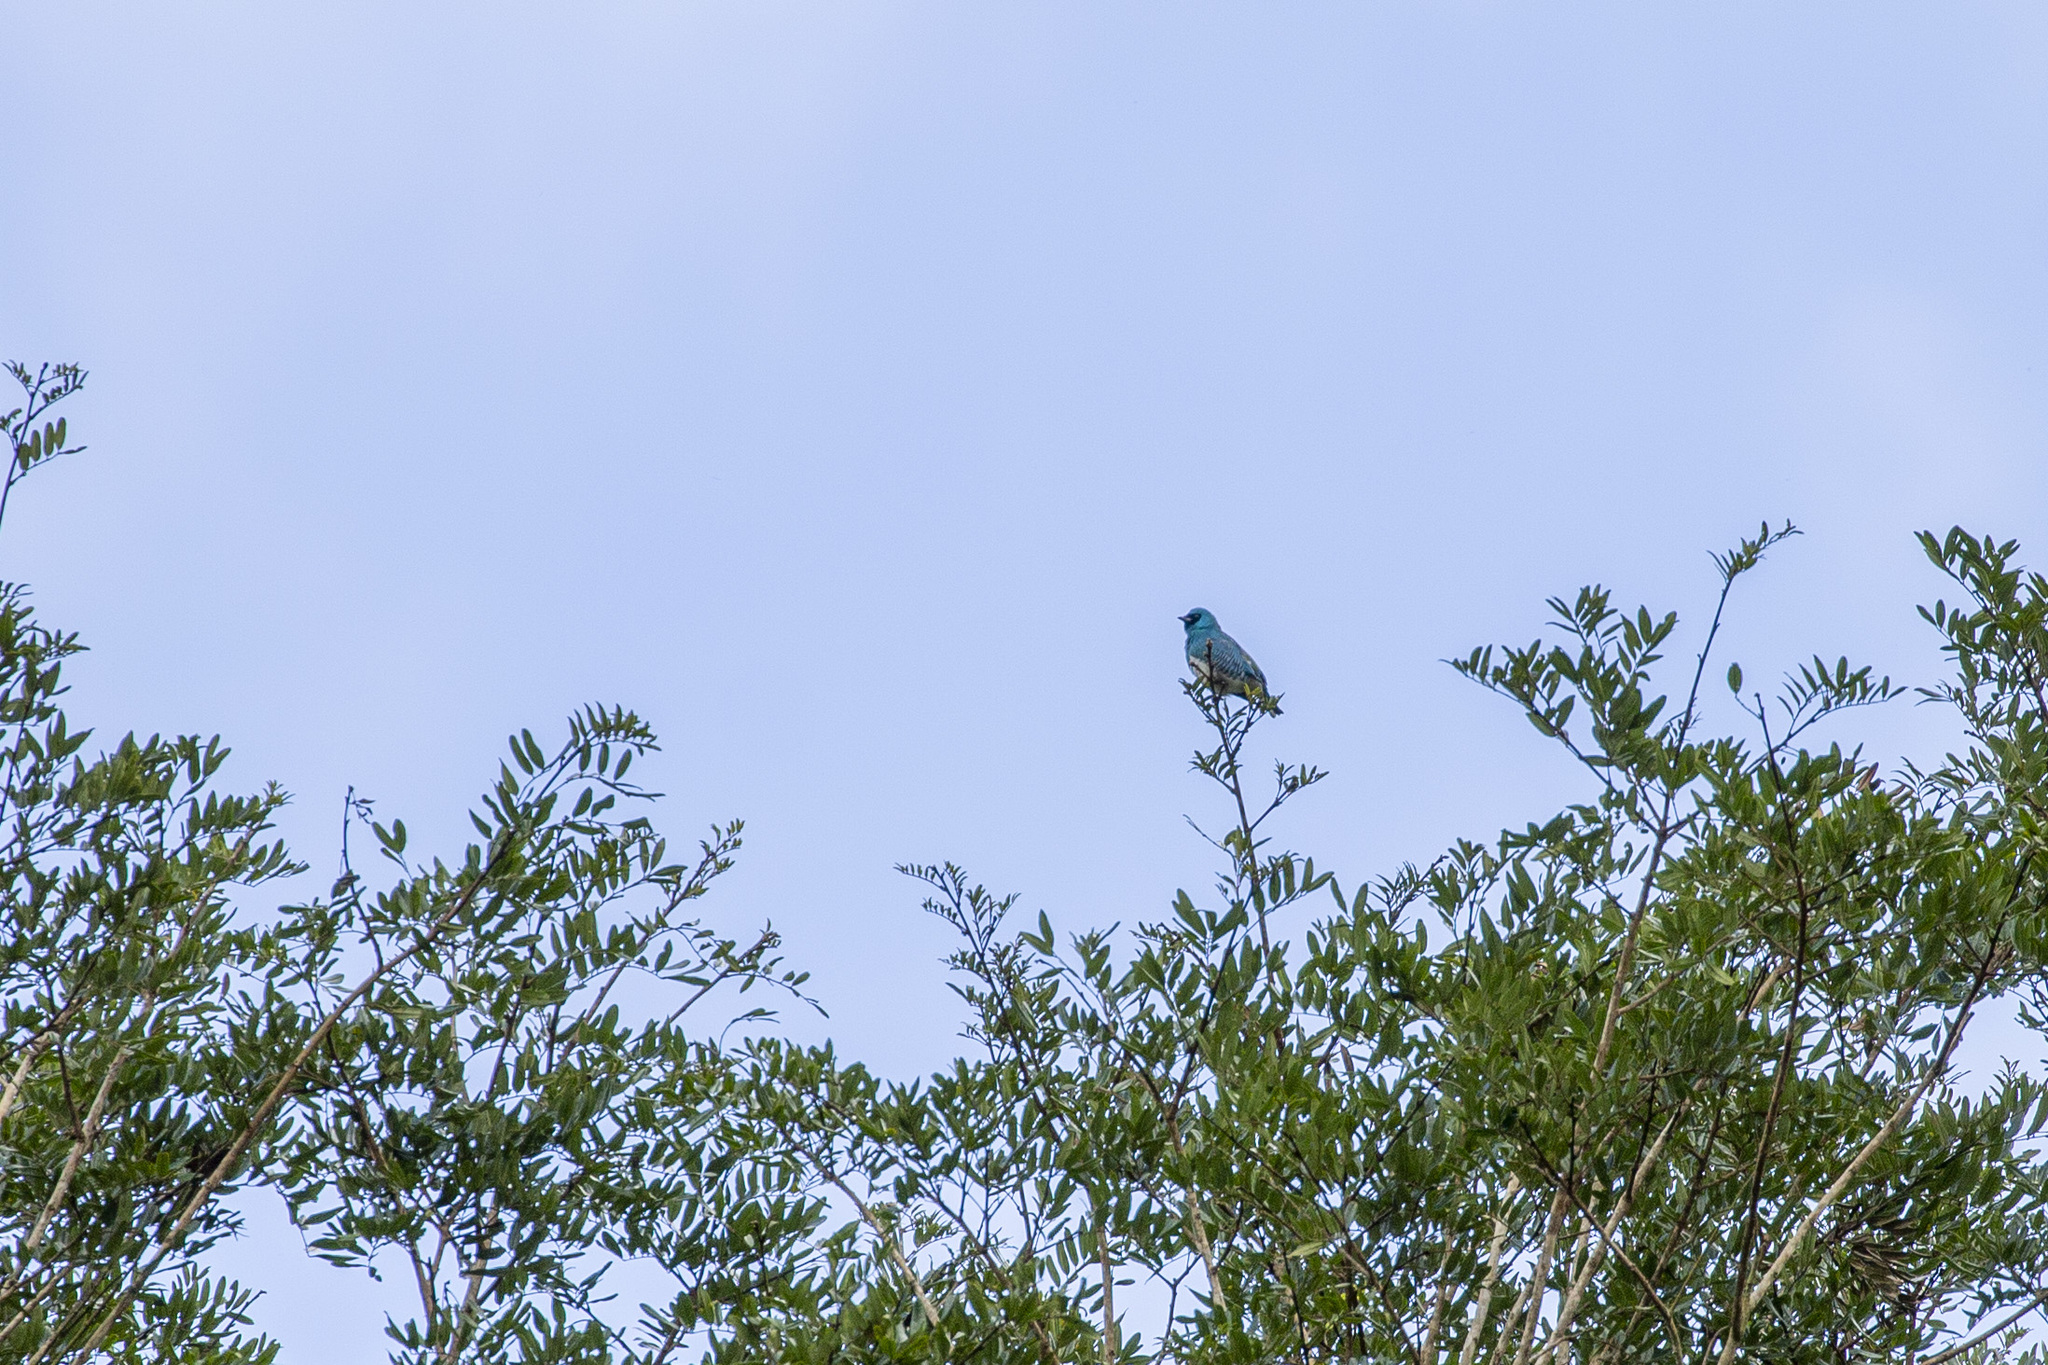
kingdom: Animalia
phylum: Chordata
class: Aves
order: Passeriformes
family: Thraupidae
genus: Tersina
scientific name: Tersina viridis
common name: Swallow tanager
